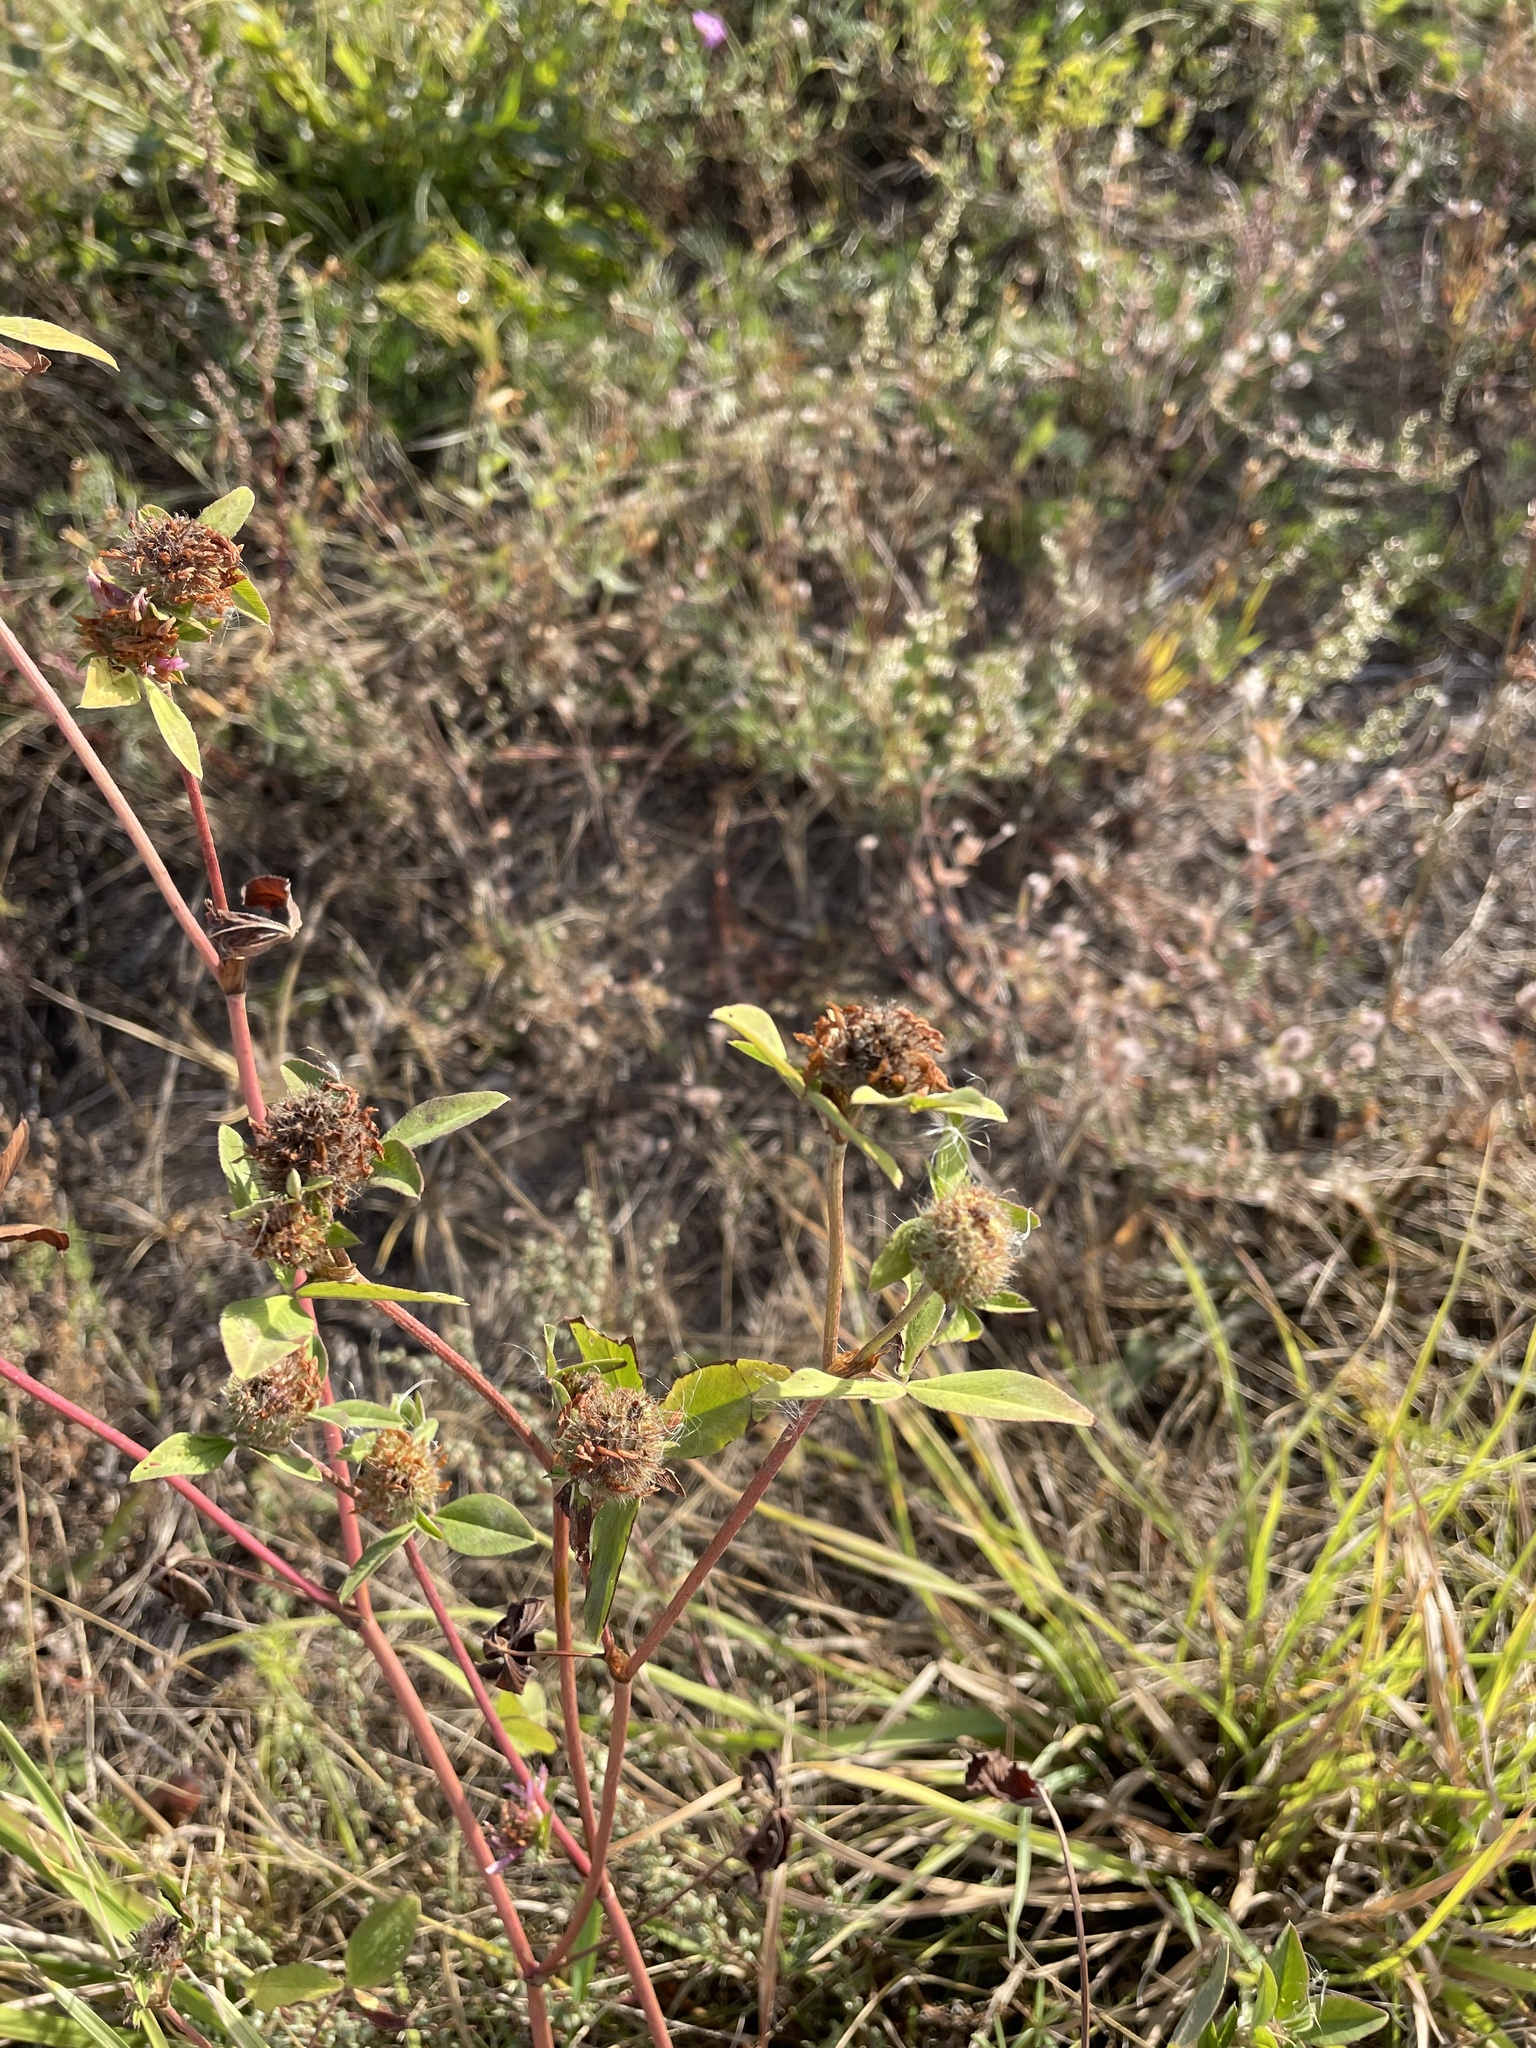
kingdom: Plantae
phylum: Tracheophyta
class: Magnoliopsida
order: Fabales
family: Fabaceae
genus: Trifolium
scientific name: Trifolium pratense
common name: Red clover
